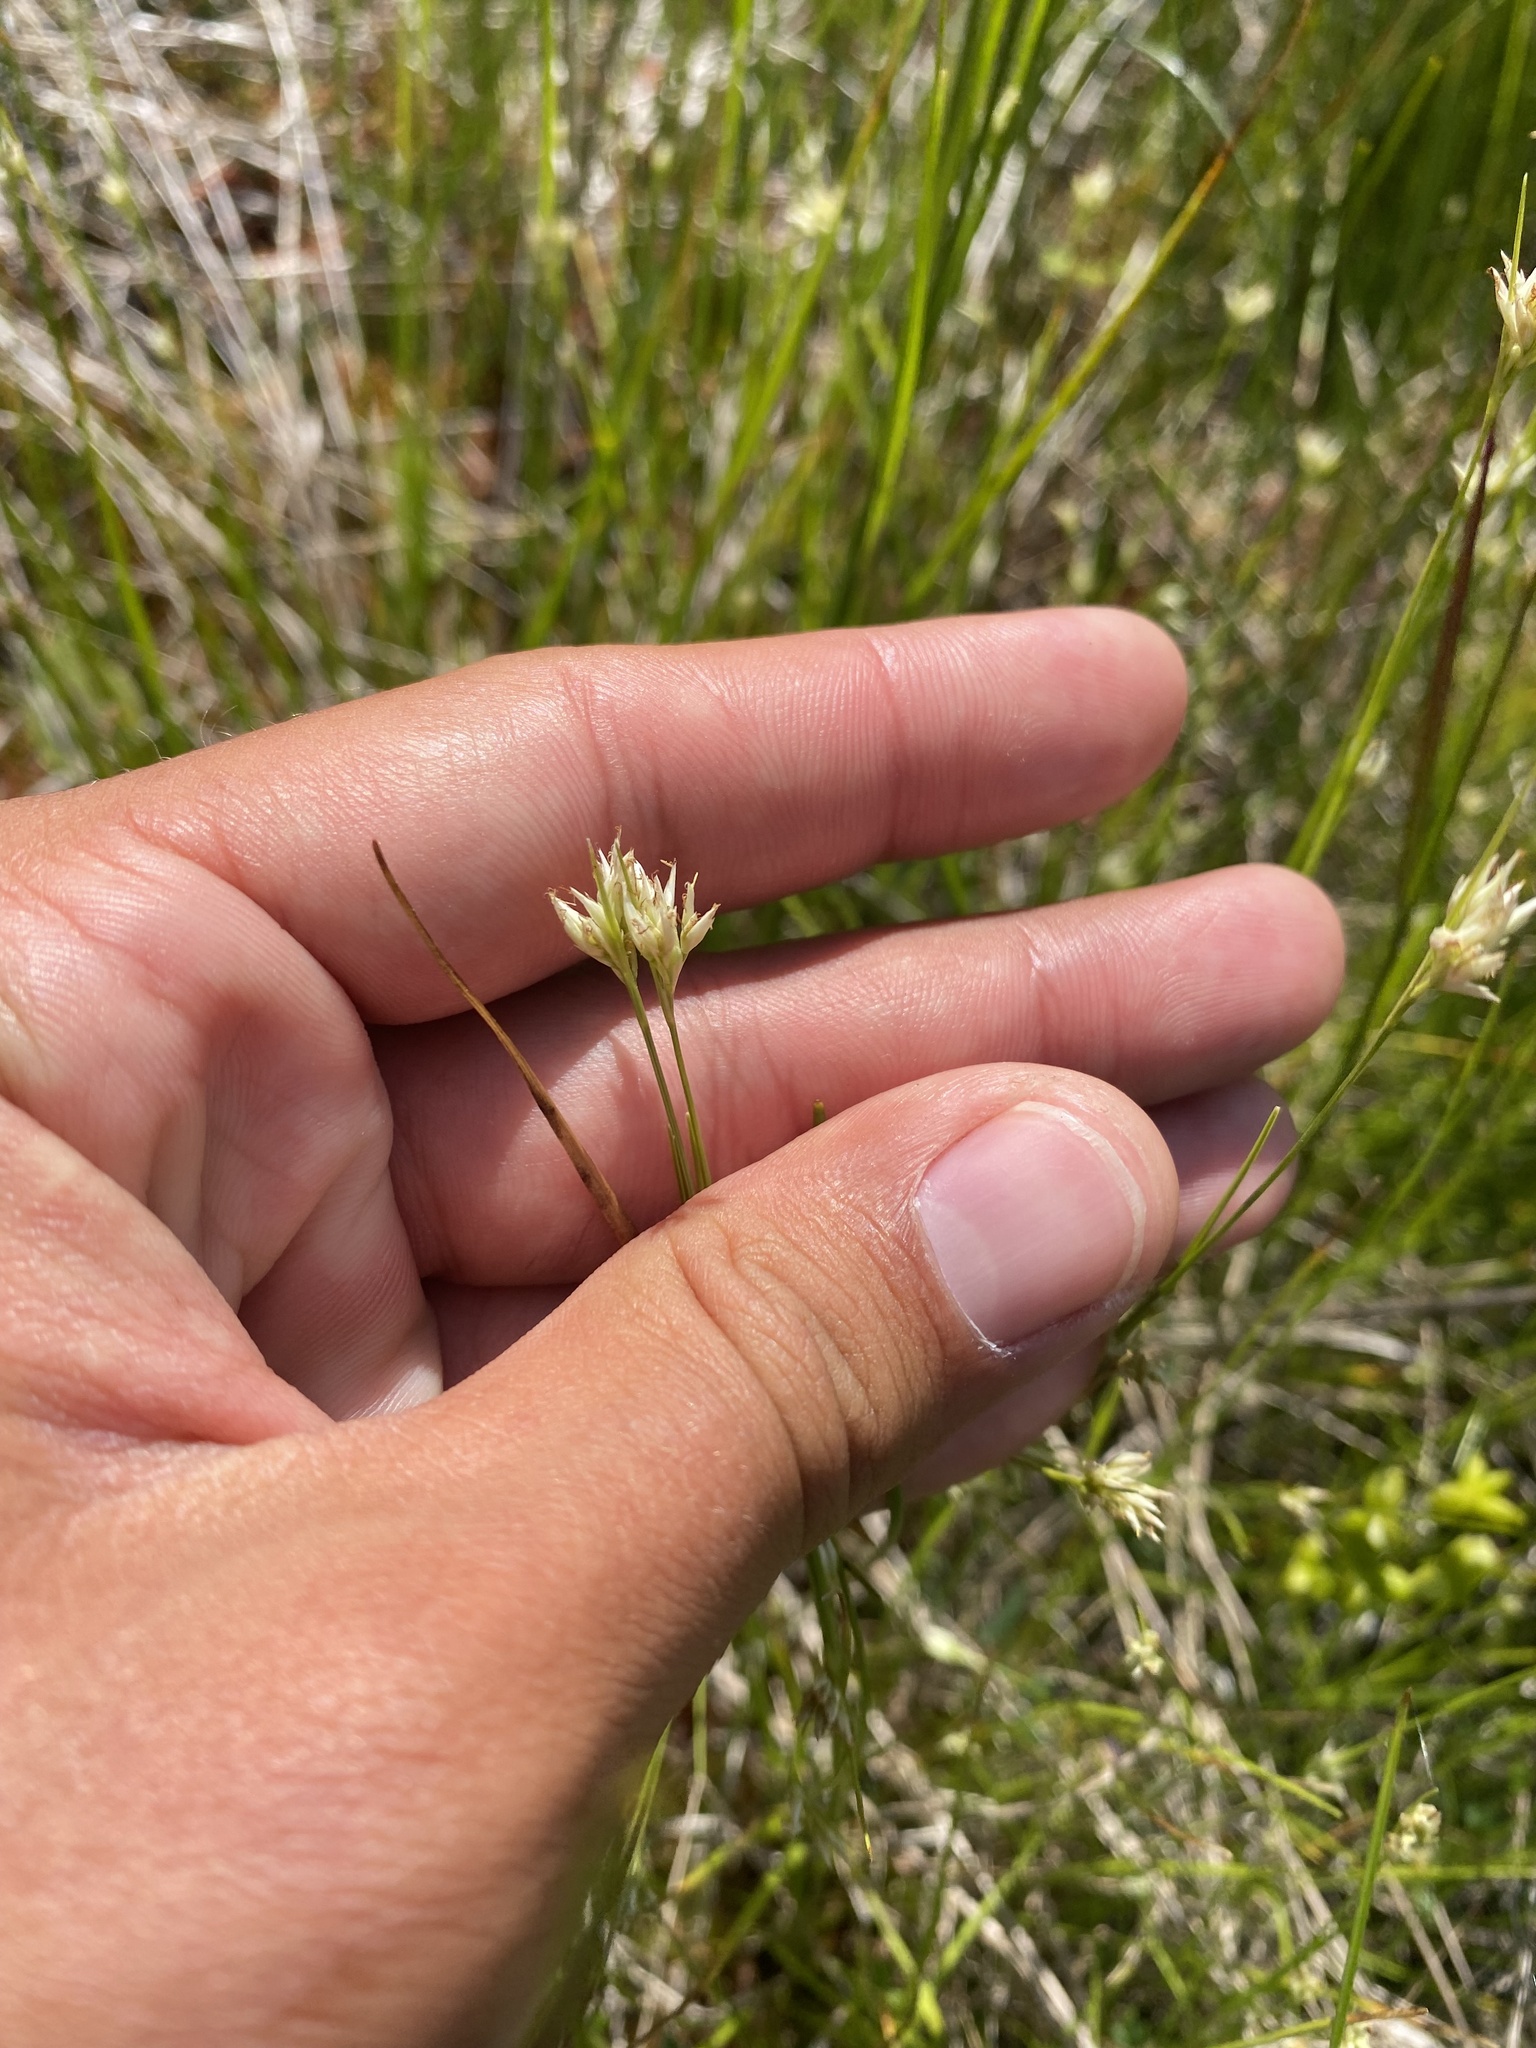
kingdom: Plantae
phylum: Tracheophyta
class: Liliopsida
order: Poales
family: Cyperaceae
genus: Rhynchospora
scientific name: Rhynchospora alba
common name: White beak-sedge
